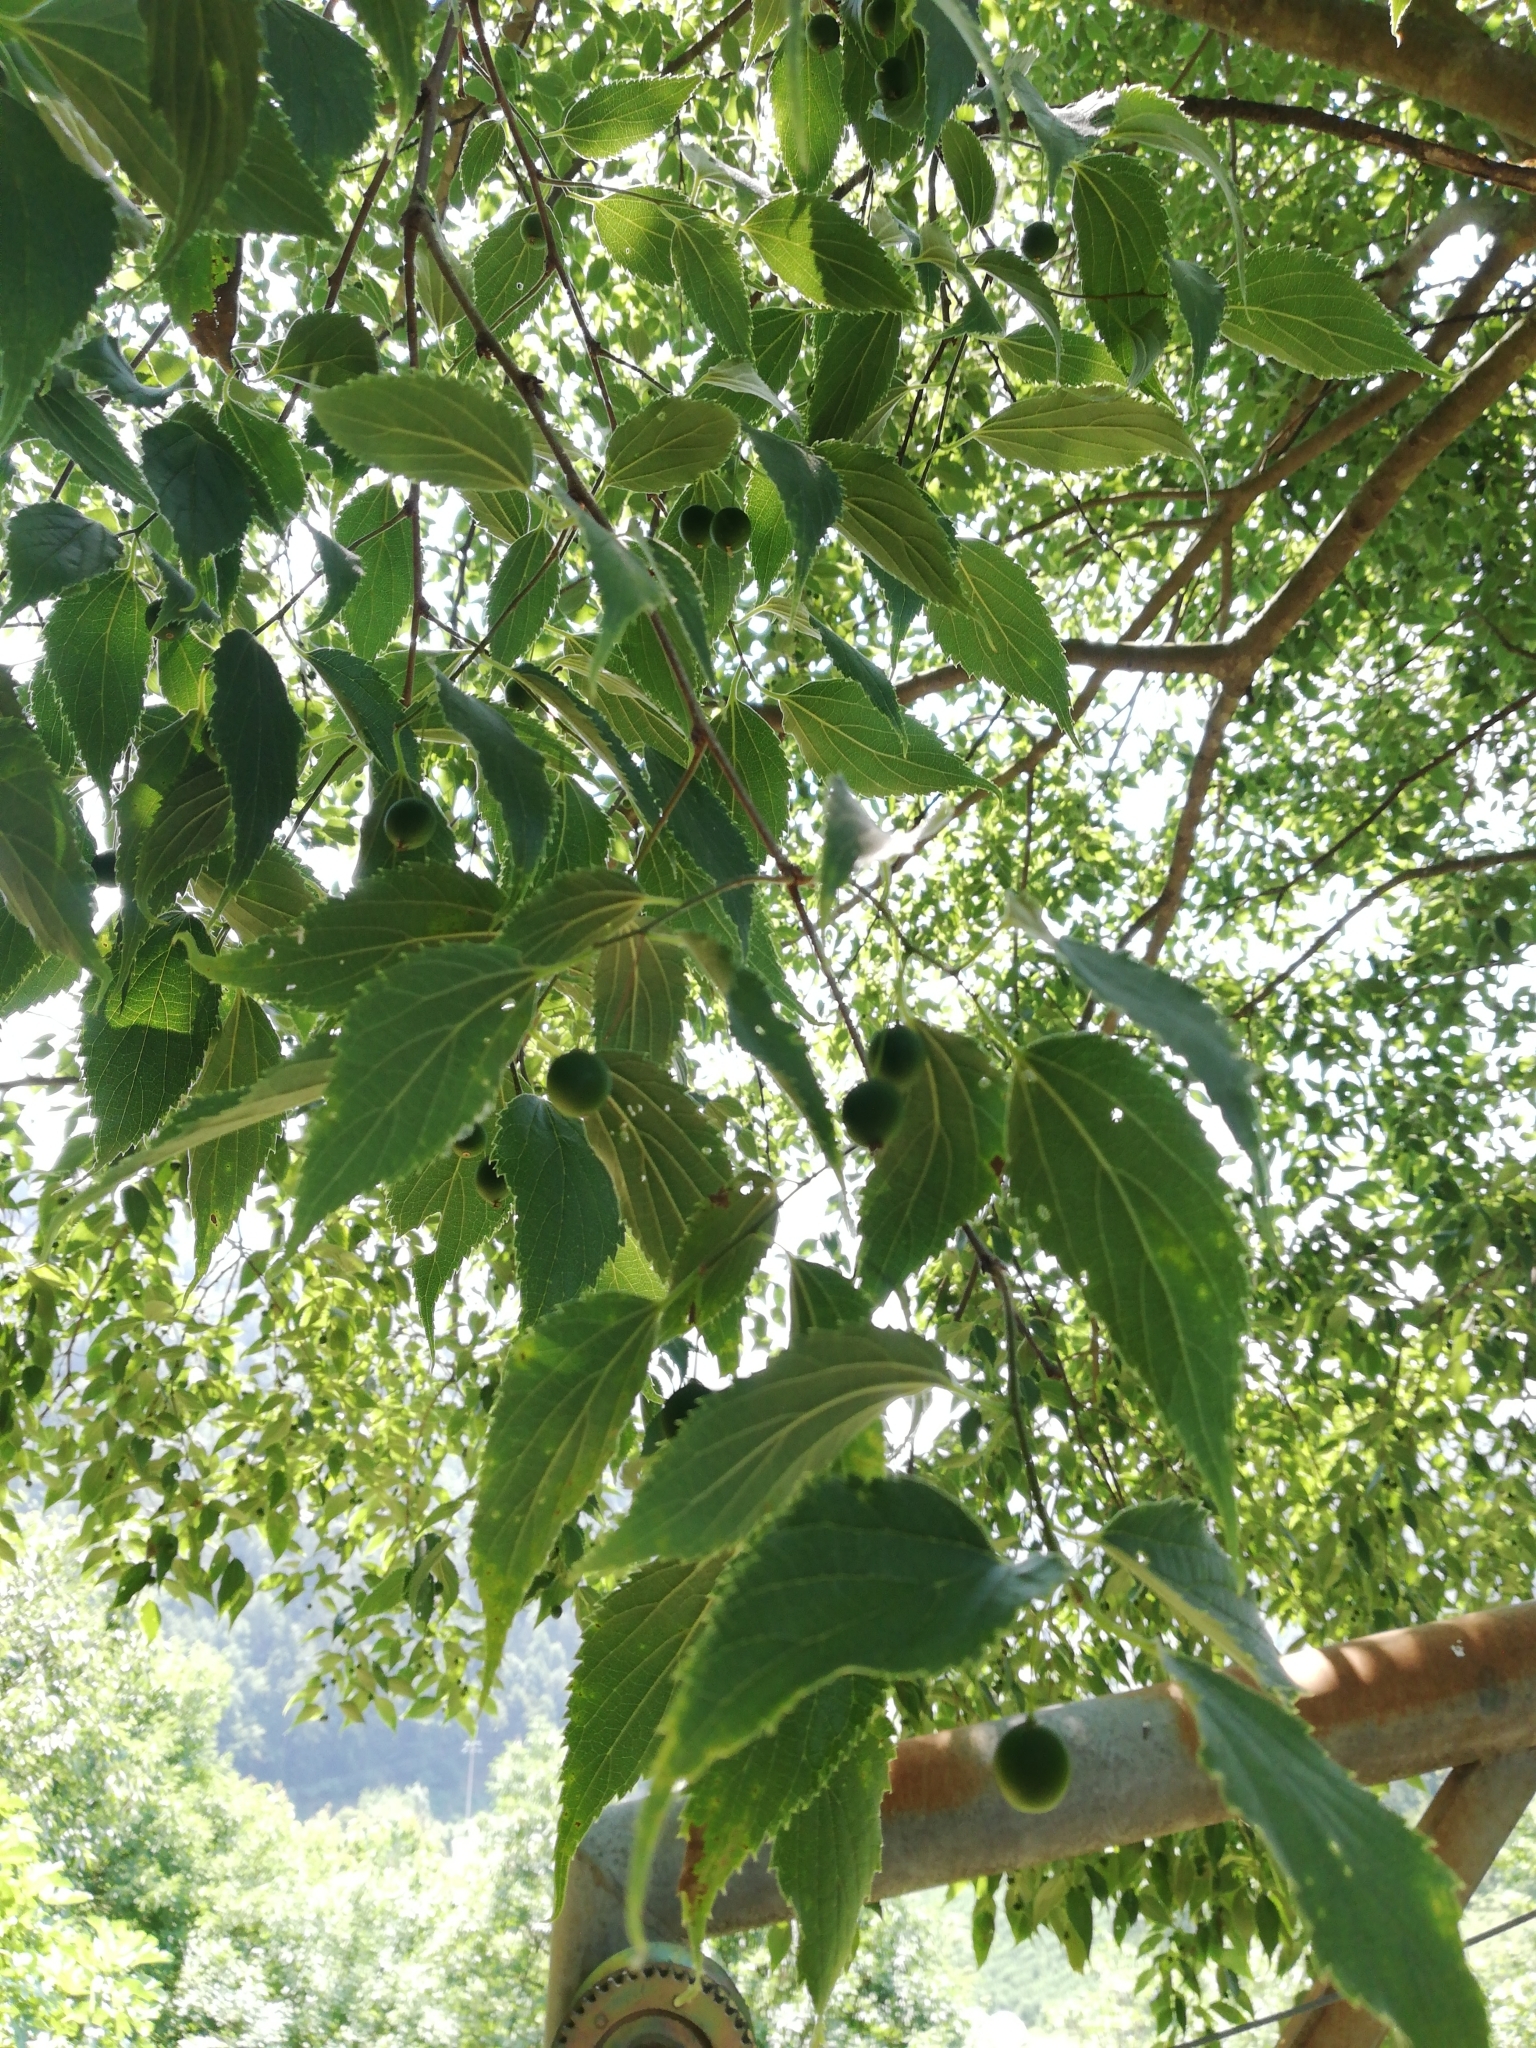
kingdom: Plantae
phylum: Tracheophyta
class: Magnoliopsida
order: Rosales
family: Cannabaceae
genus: Celtis
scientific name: Celtis australis
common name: European hackberry
